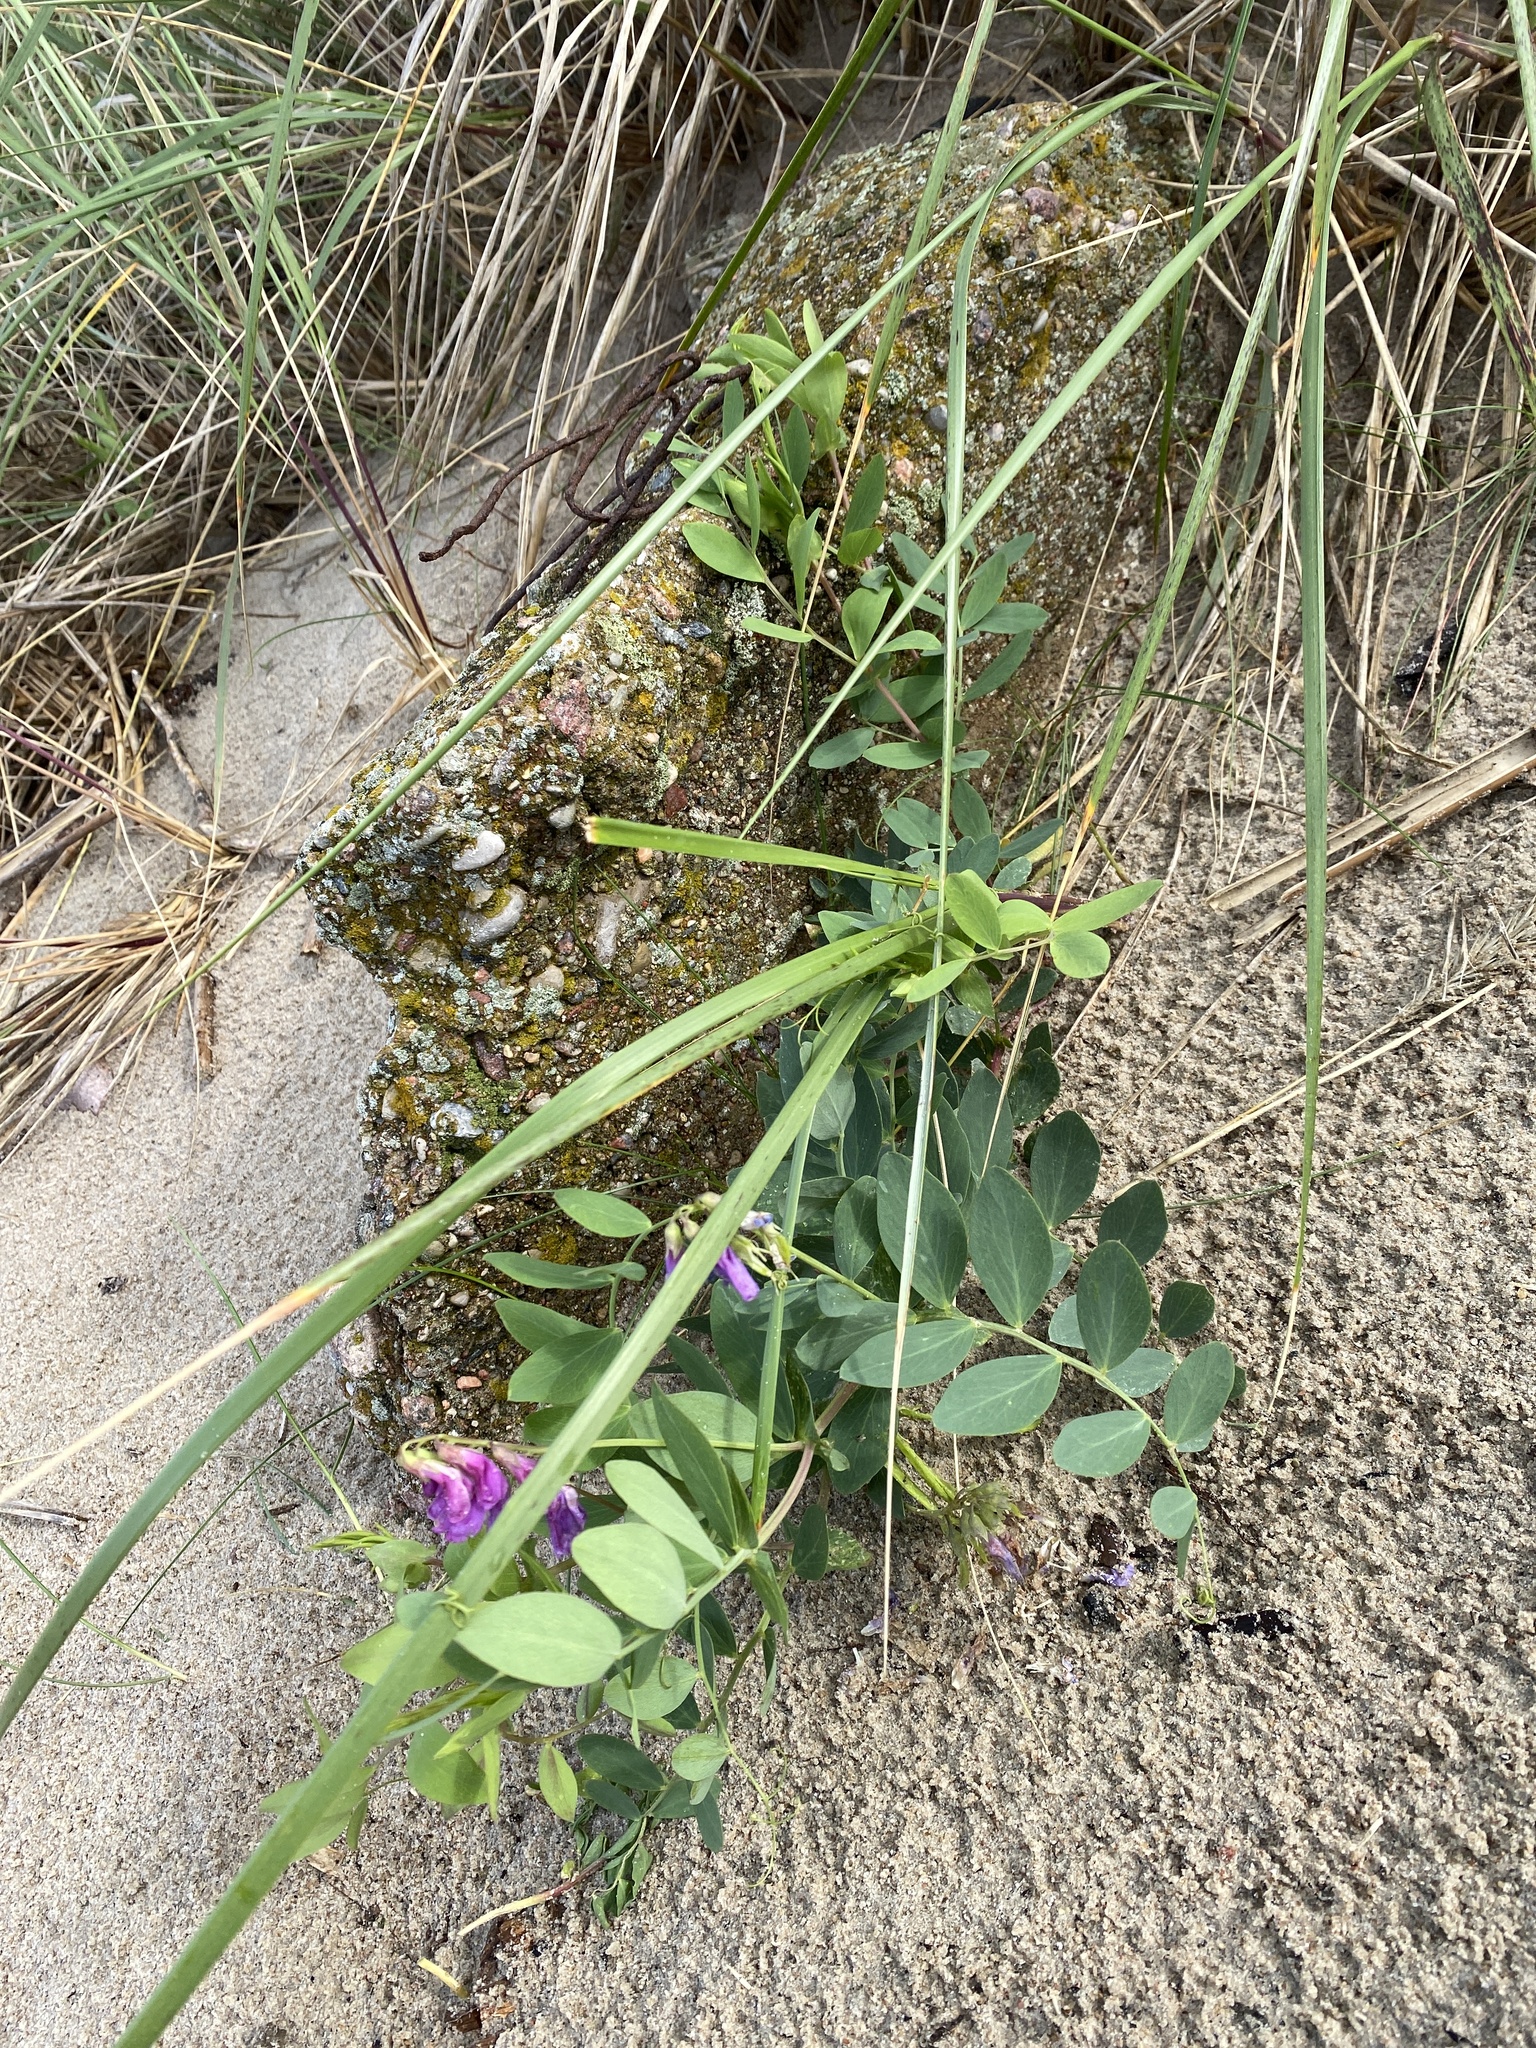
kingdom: Plantae
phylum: Tracheophyta
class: Magnoliopsida
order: Fabales
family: Fabaceae
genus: Lathyrus
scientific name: Lathyrus japonicus
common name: Sea pea
